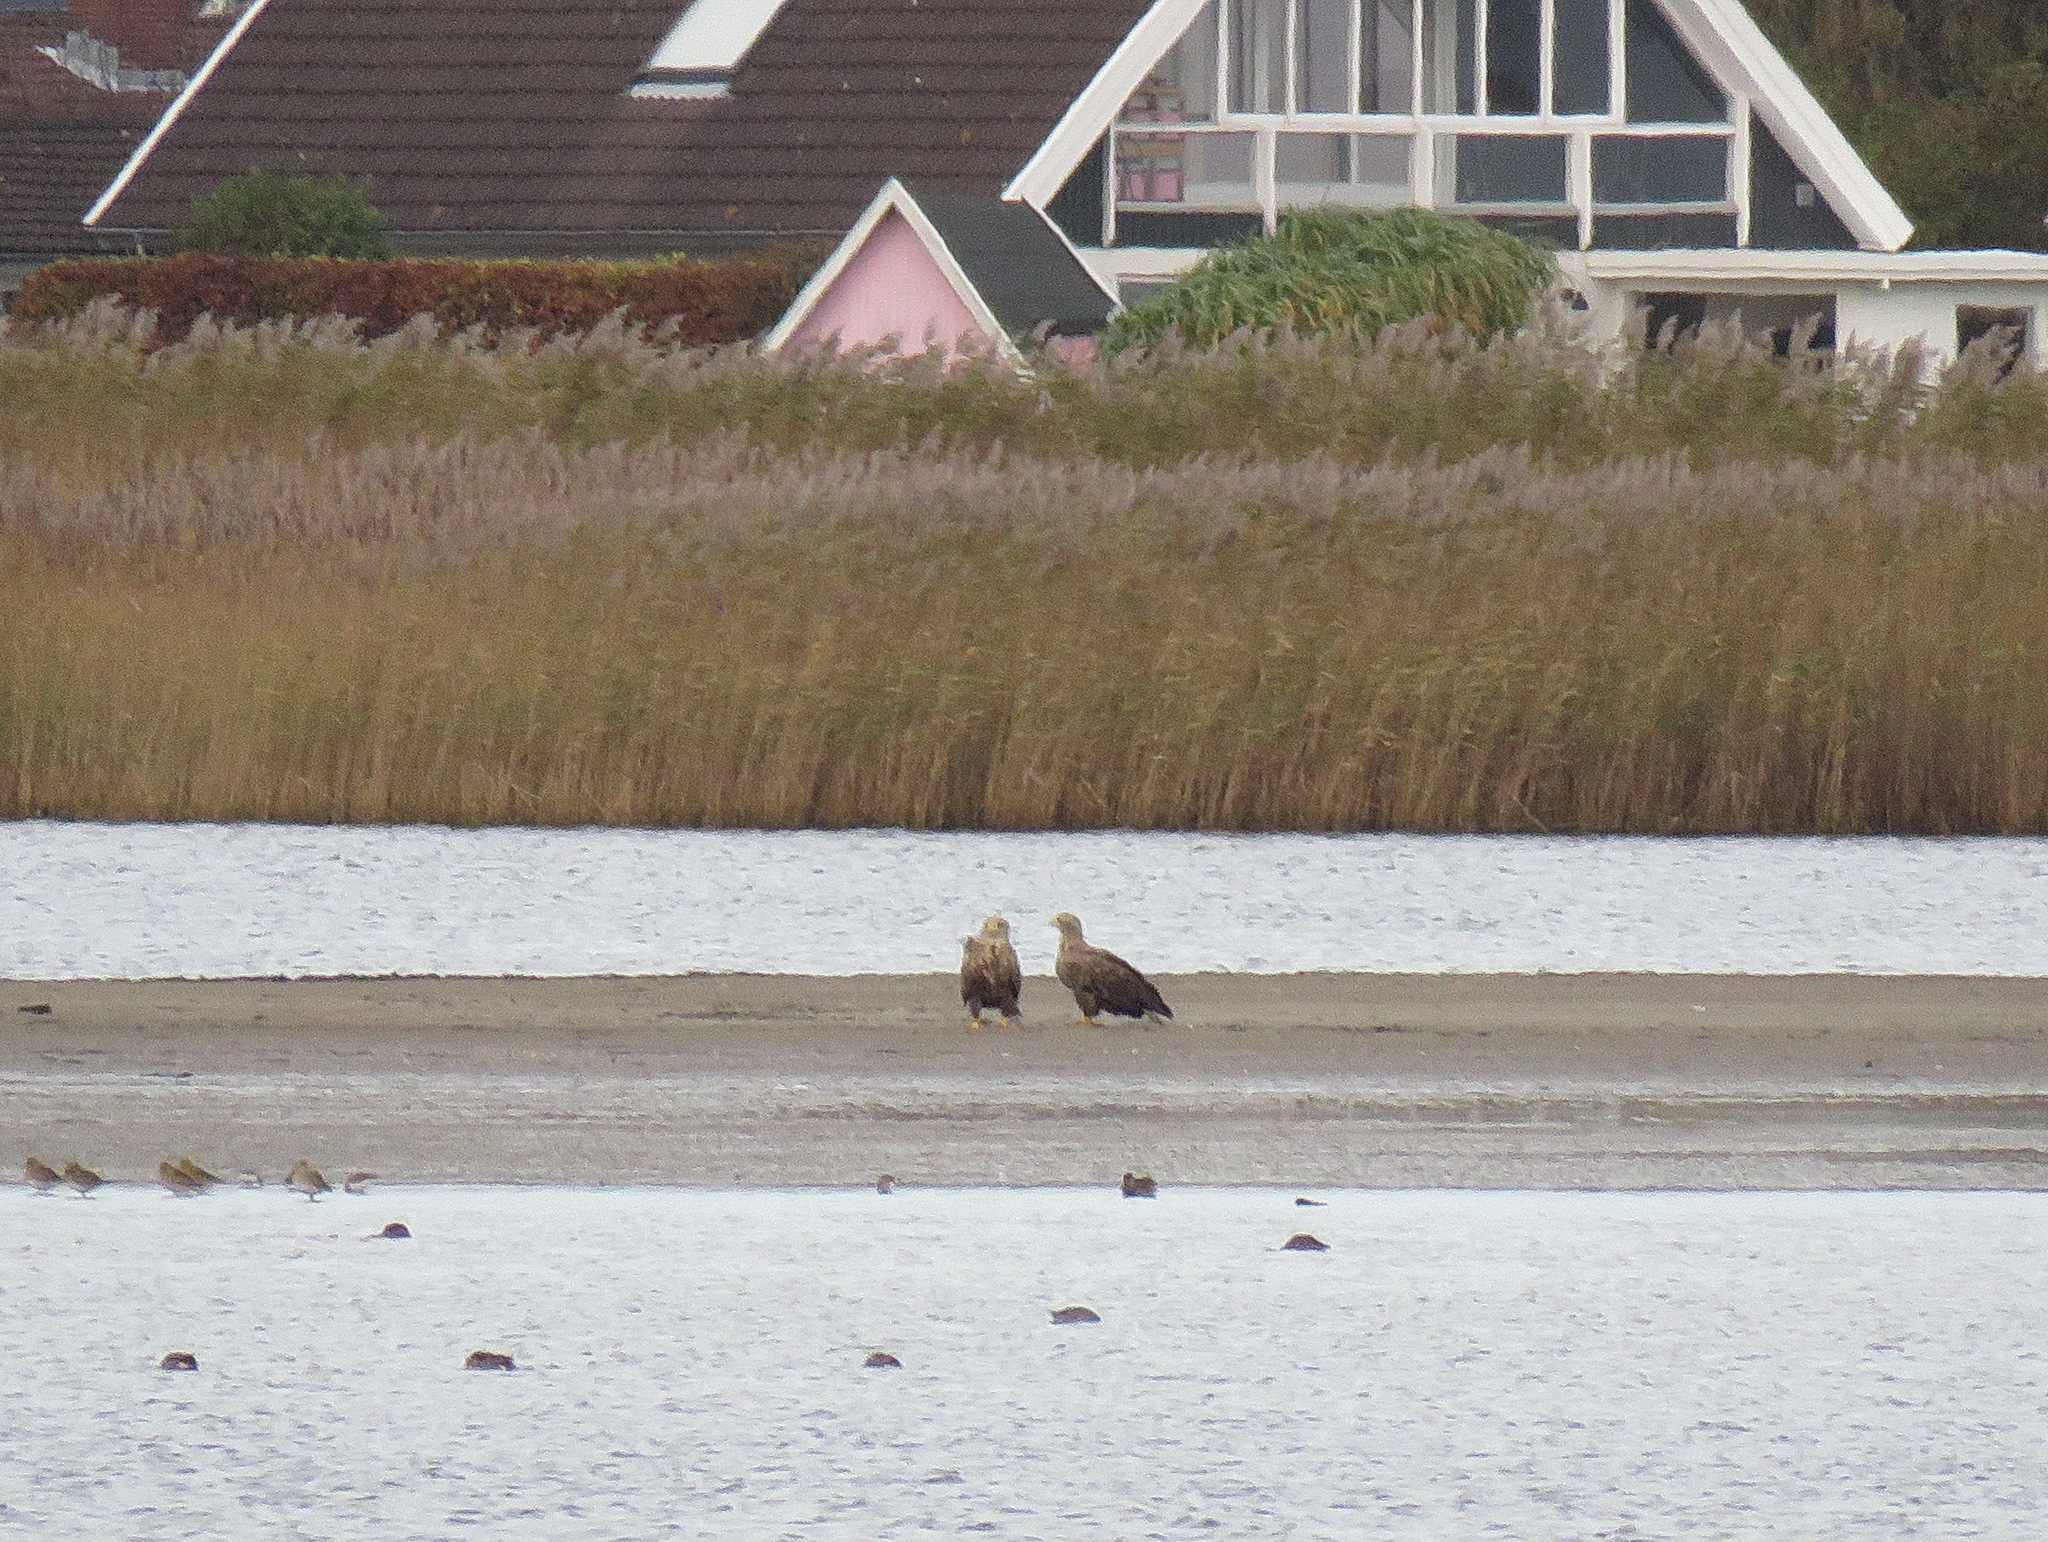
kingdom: Animalia
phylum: Chordata
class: Aves
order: Accipitriformes
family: Accipitridae
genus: Haliaeetus
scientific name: Haliaeetus albicilla
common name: White-tailed eagle
